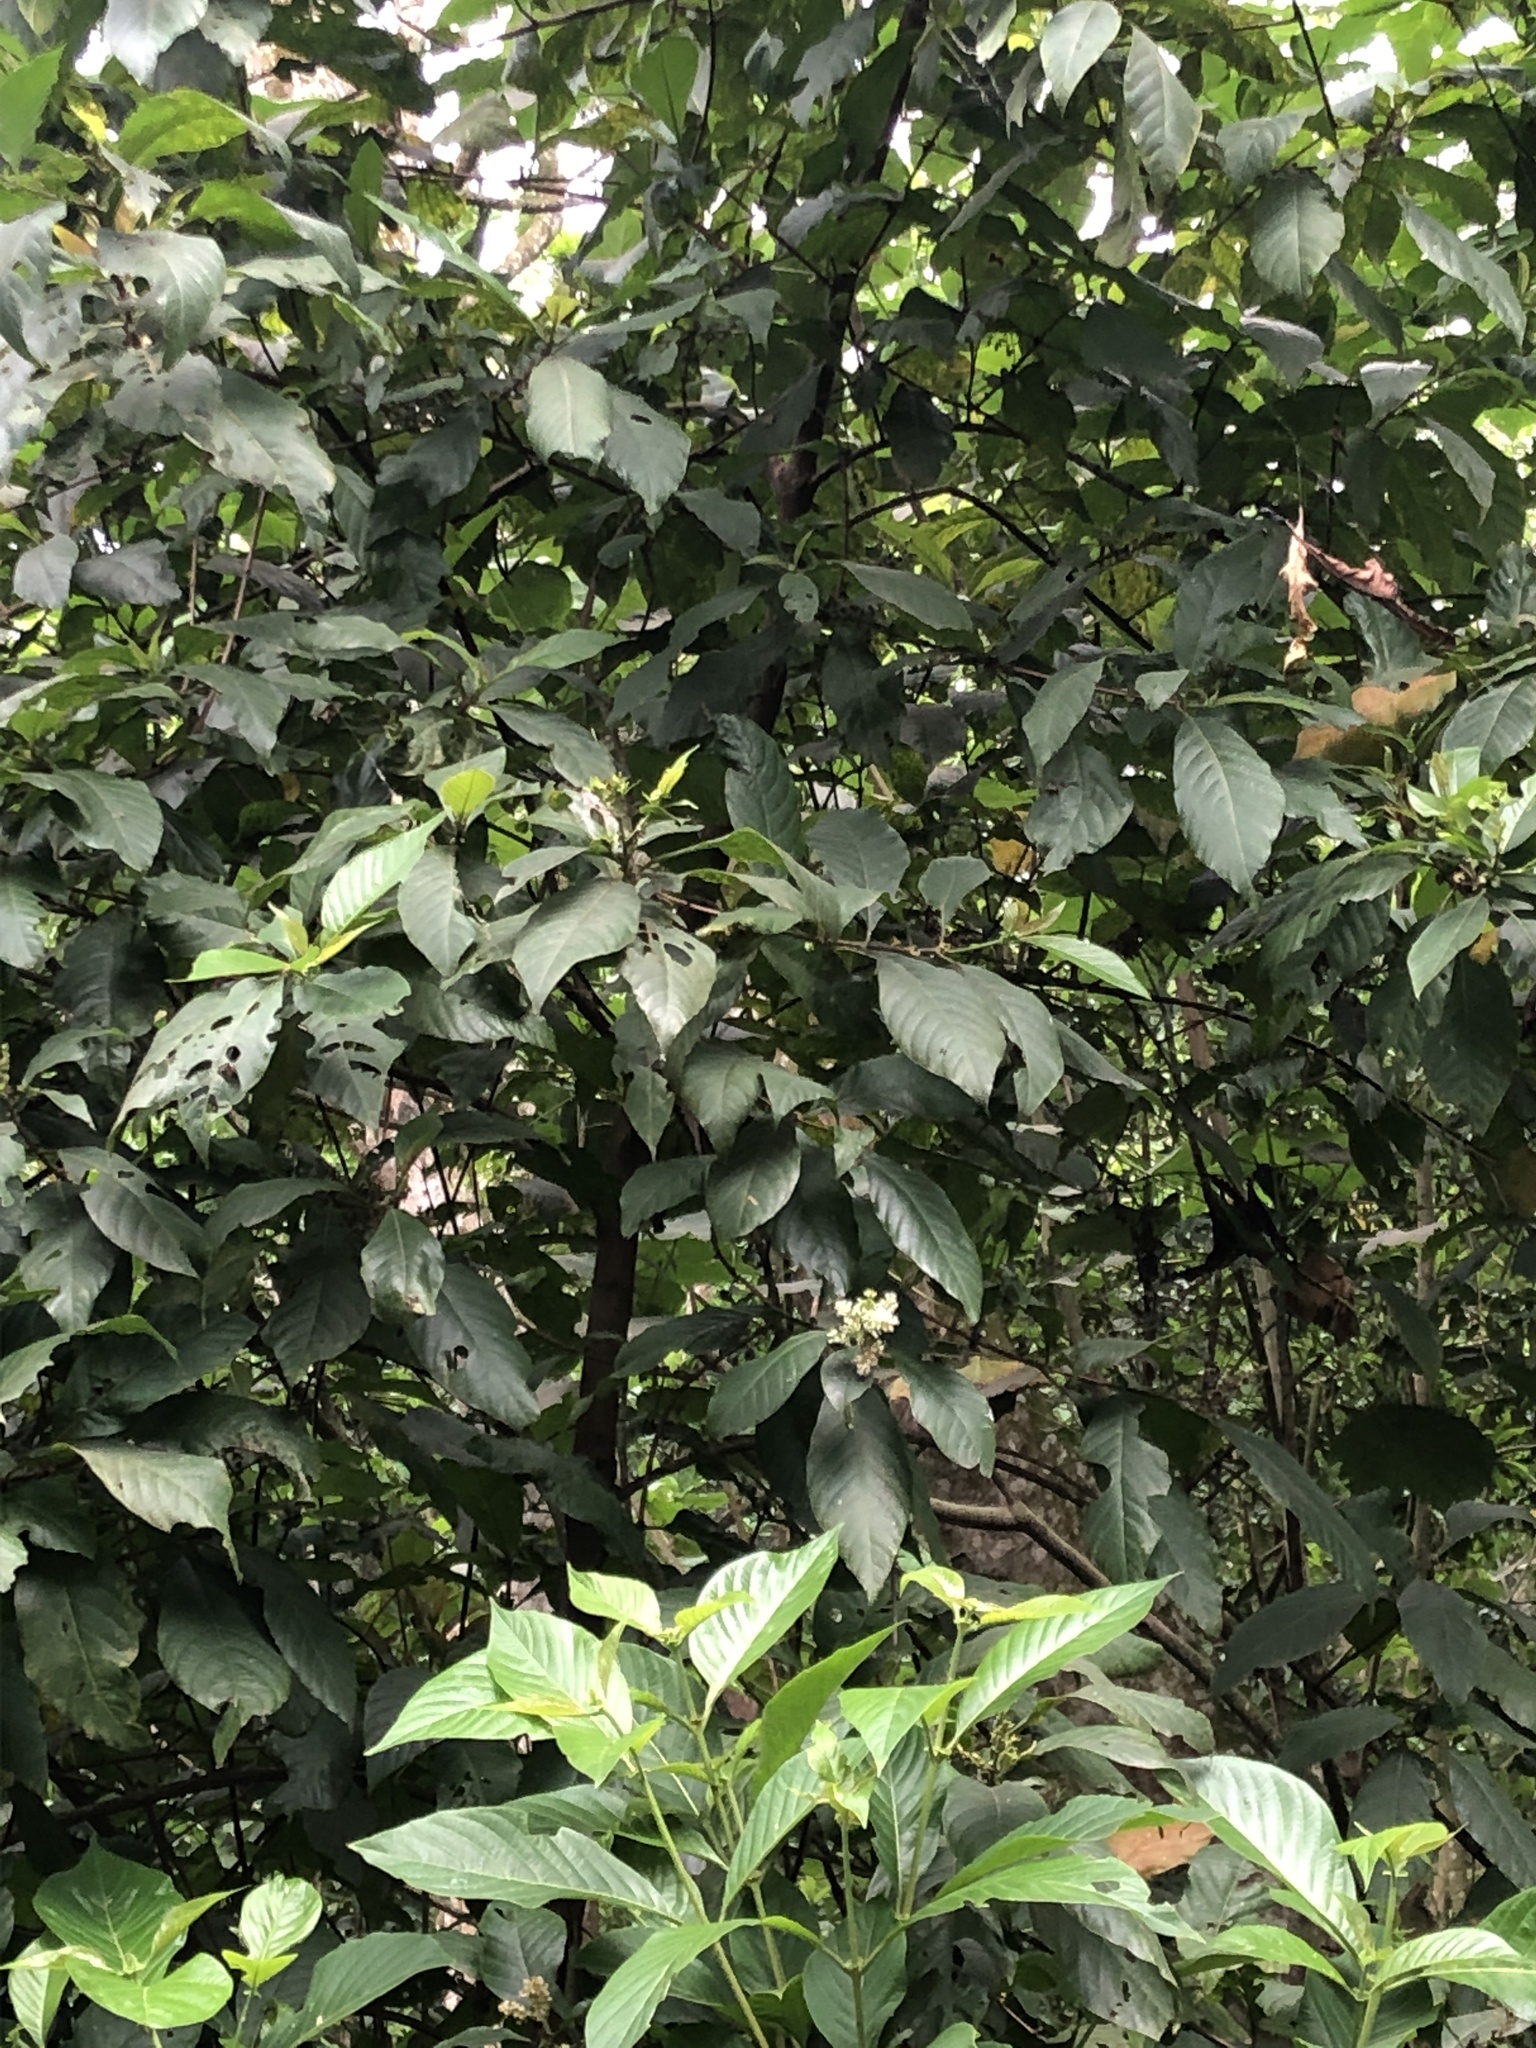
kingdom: Plantae
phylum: Tracheophyta
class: Magnoliopsida
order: Gentianales
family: Rubiaceae
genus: Wendlandia
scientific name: Wendlandia uvariifolia
